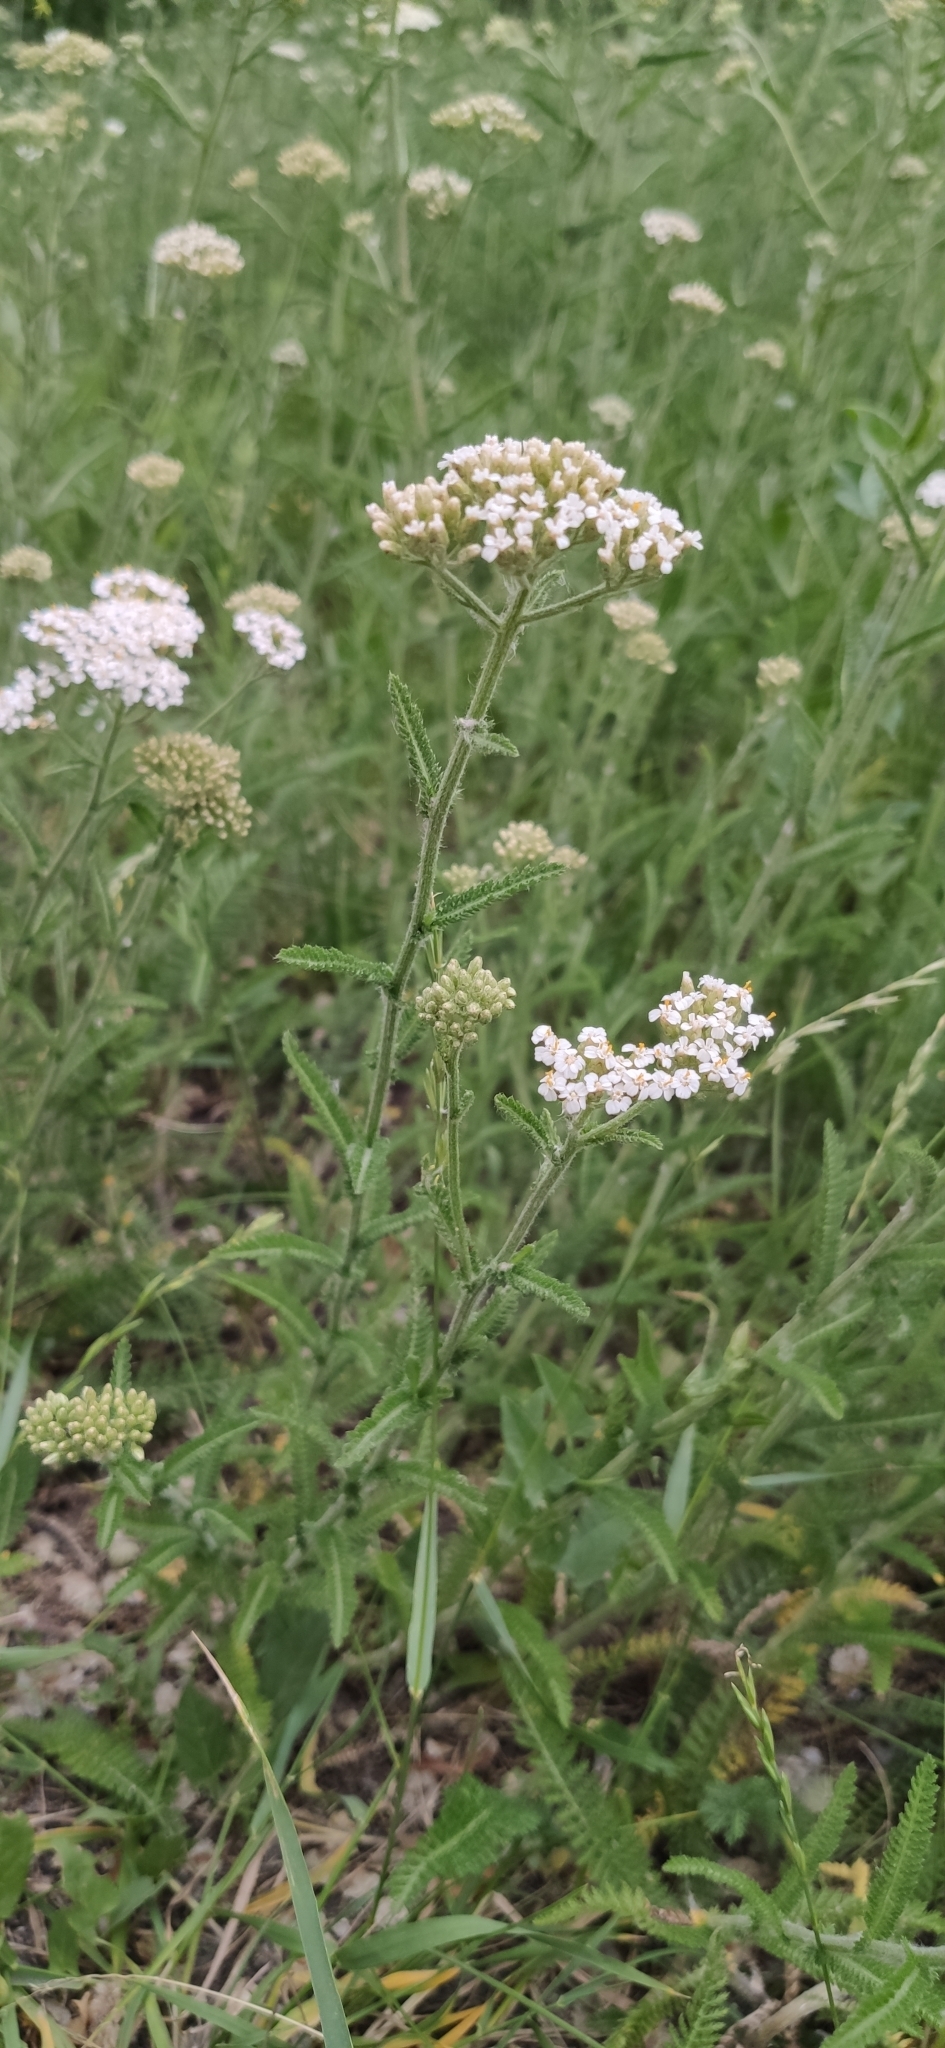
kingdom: Plantae
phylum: Tracheophyta
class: Magnoliopsida
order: Asterales
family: Asteraceae
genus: Achillea
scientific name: Achillea millefolium
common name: Yarrow
